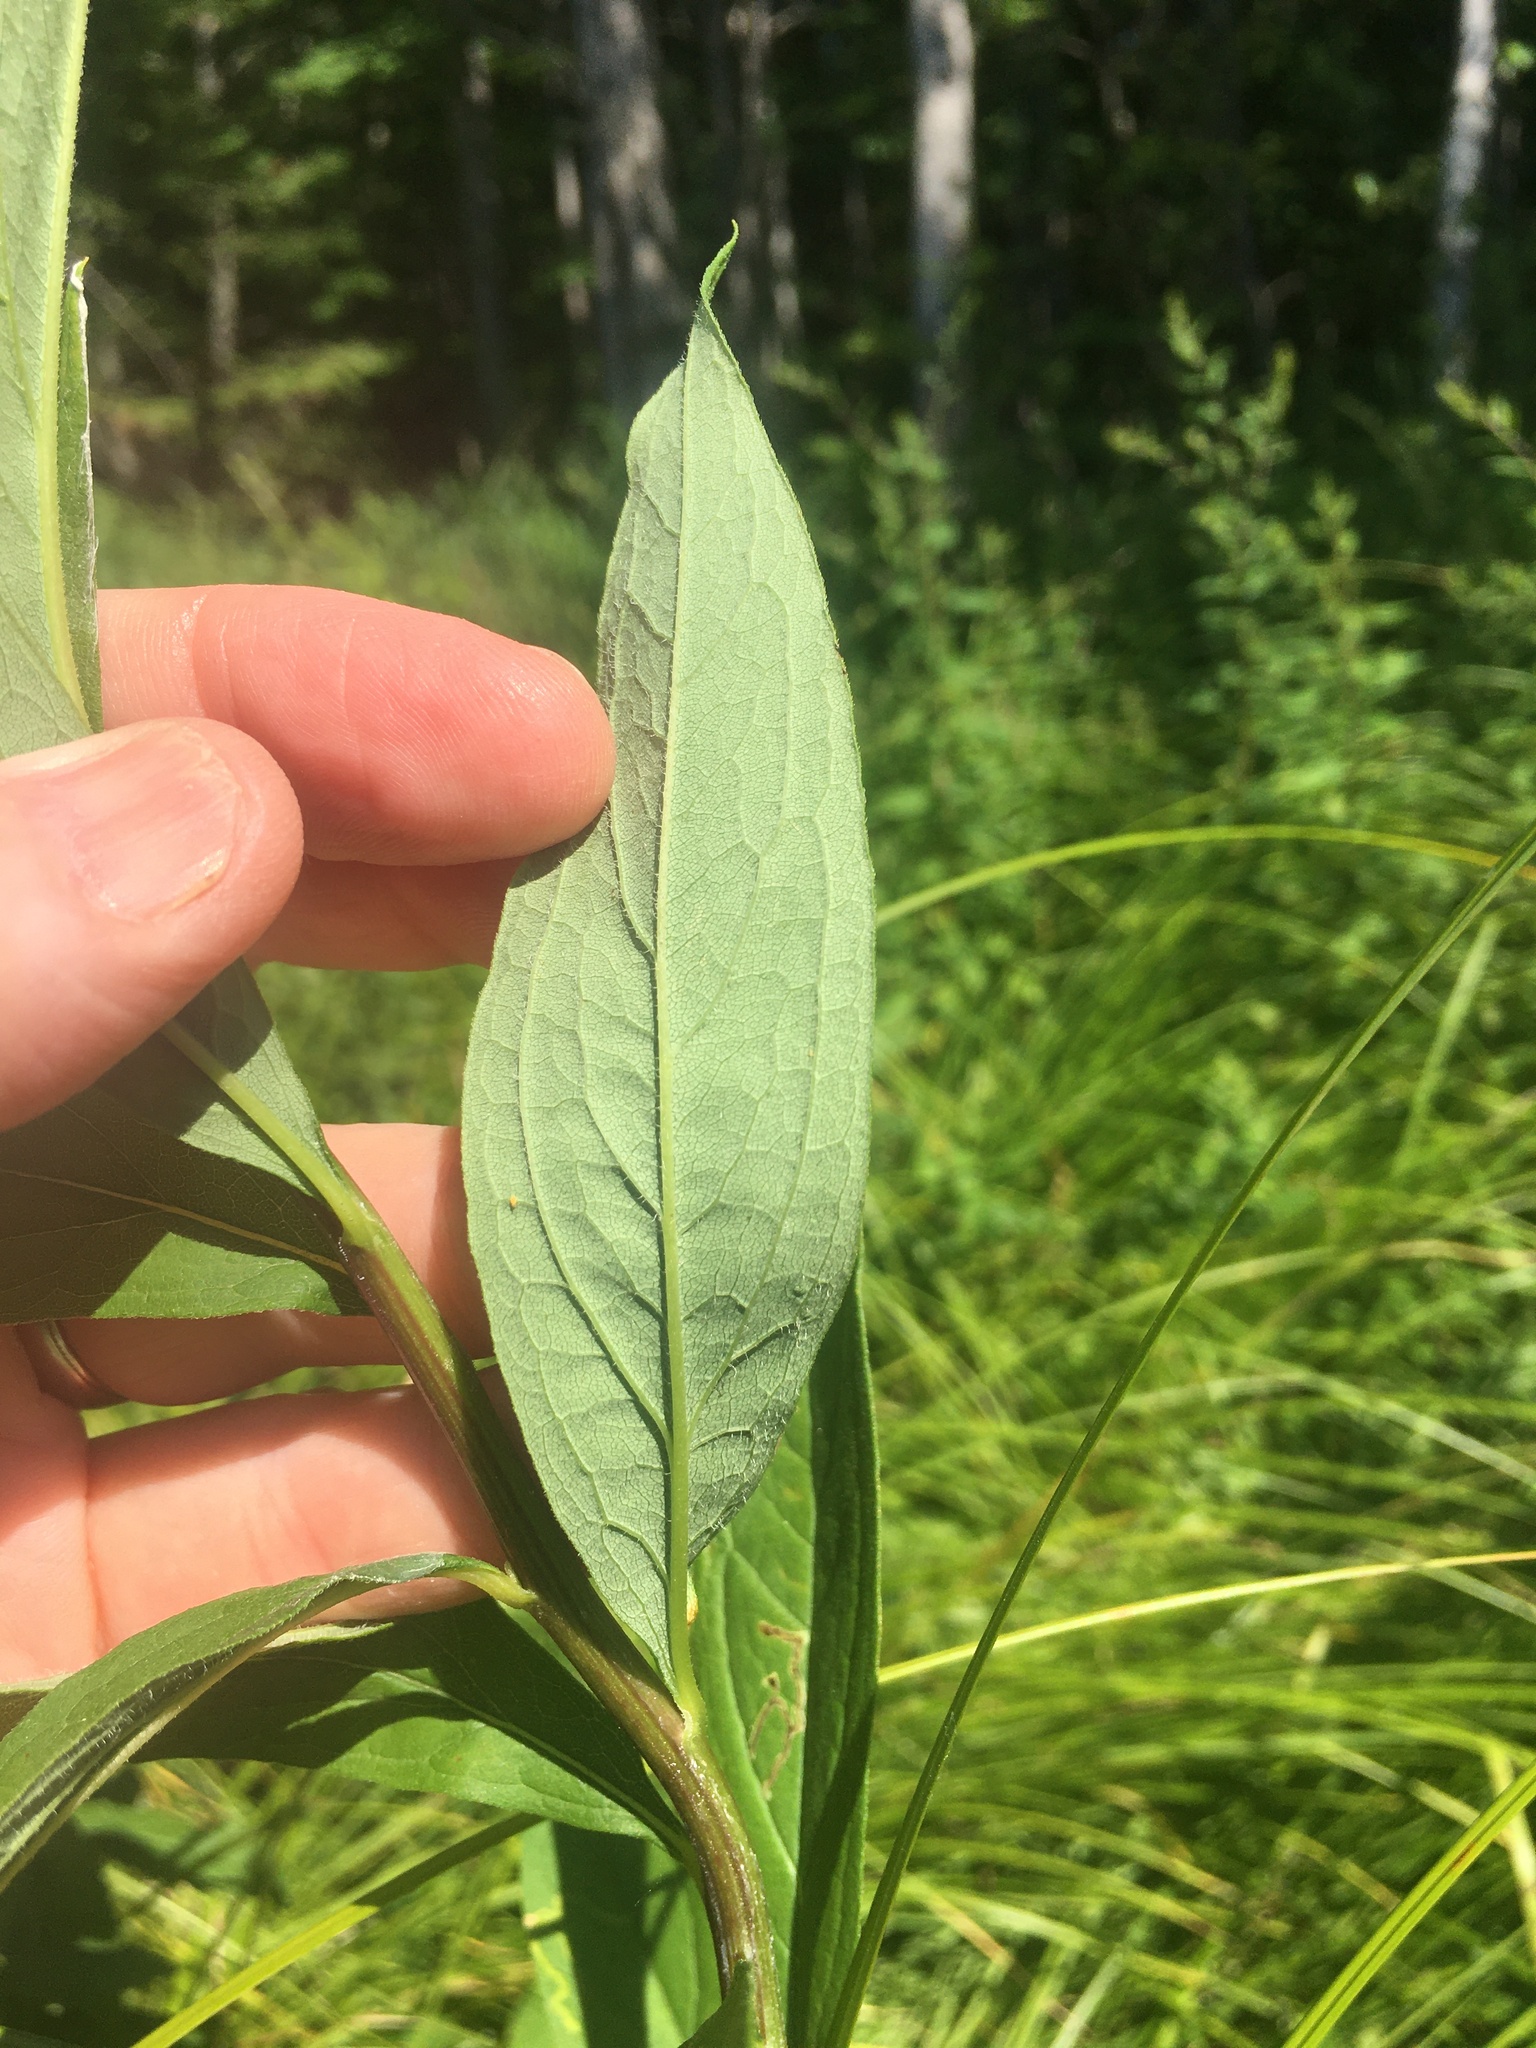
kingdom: Plantae
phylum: Tracheophyta
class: Magnoliopsida
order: Asterales
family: Asteraceae
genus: Doellingeria
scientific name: Doellingeria umbellata
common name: Flat-top white aster
